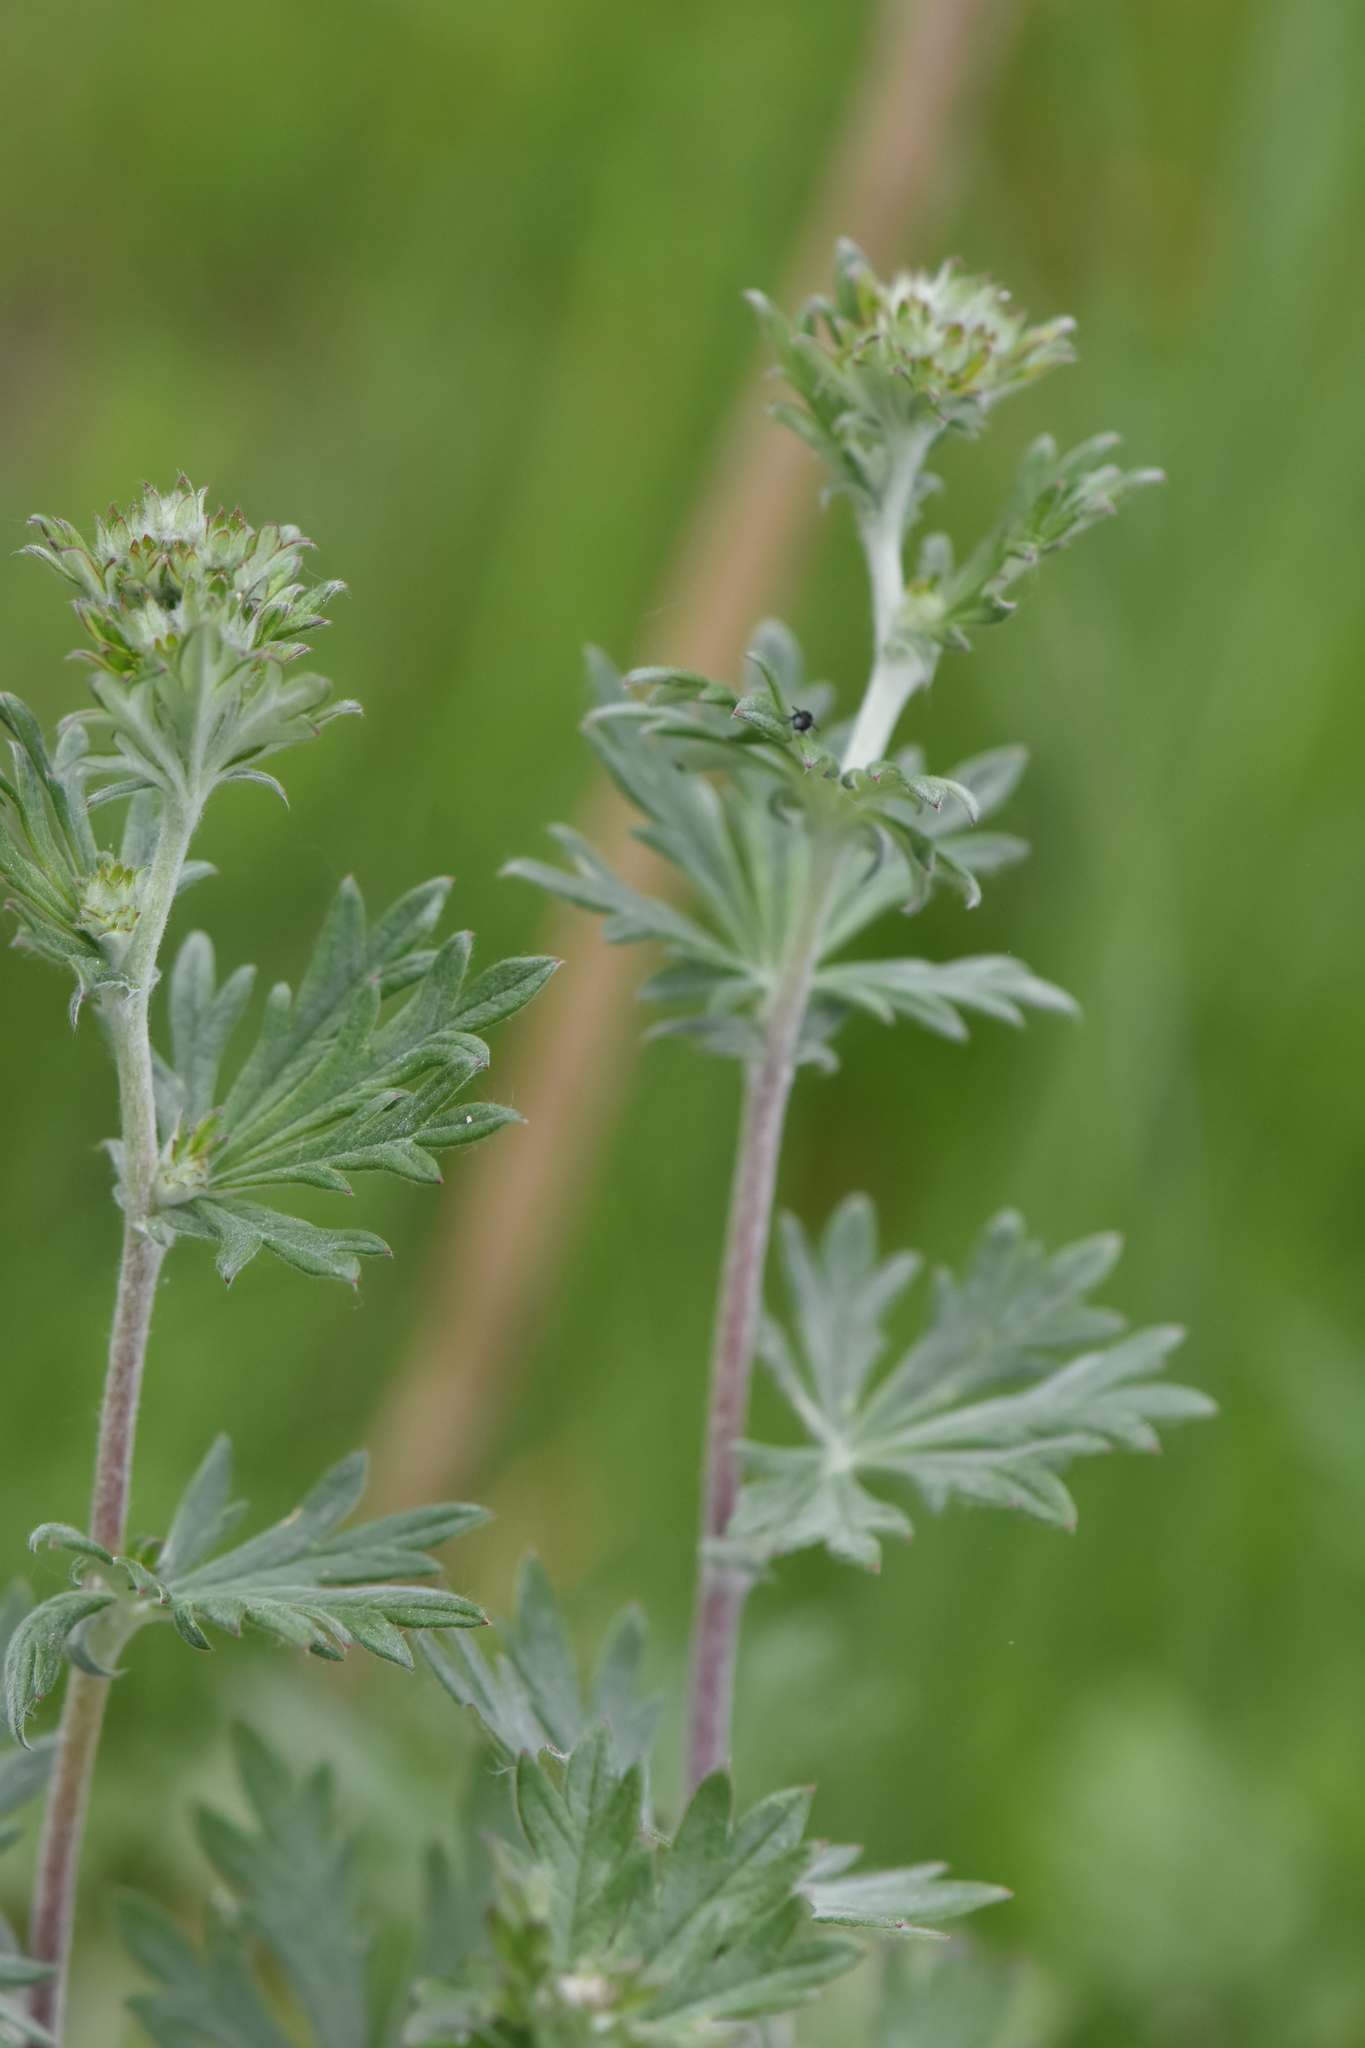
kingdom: Plantae
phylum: Tracheophyta
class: Magnoliopsida
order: Rosales
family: Rosaceae
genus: Potentilla
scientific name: Potentilla argentea
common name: Hoary cinquefoil
